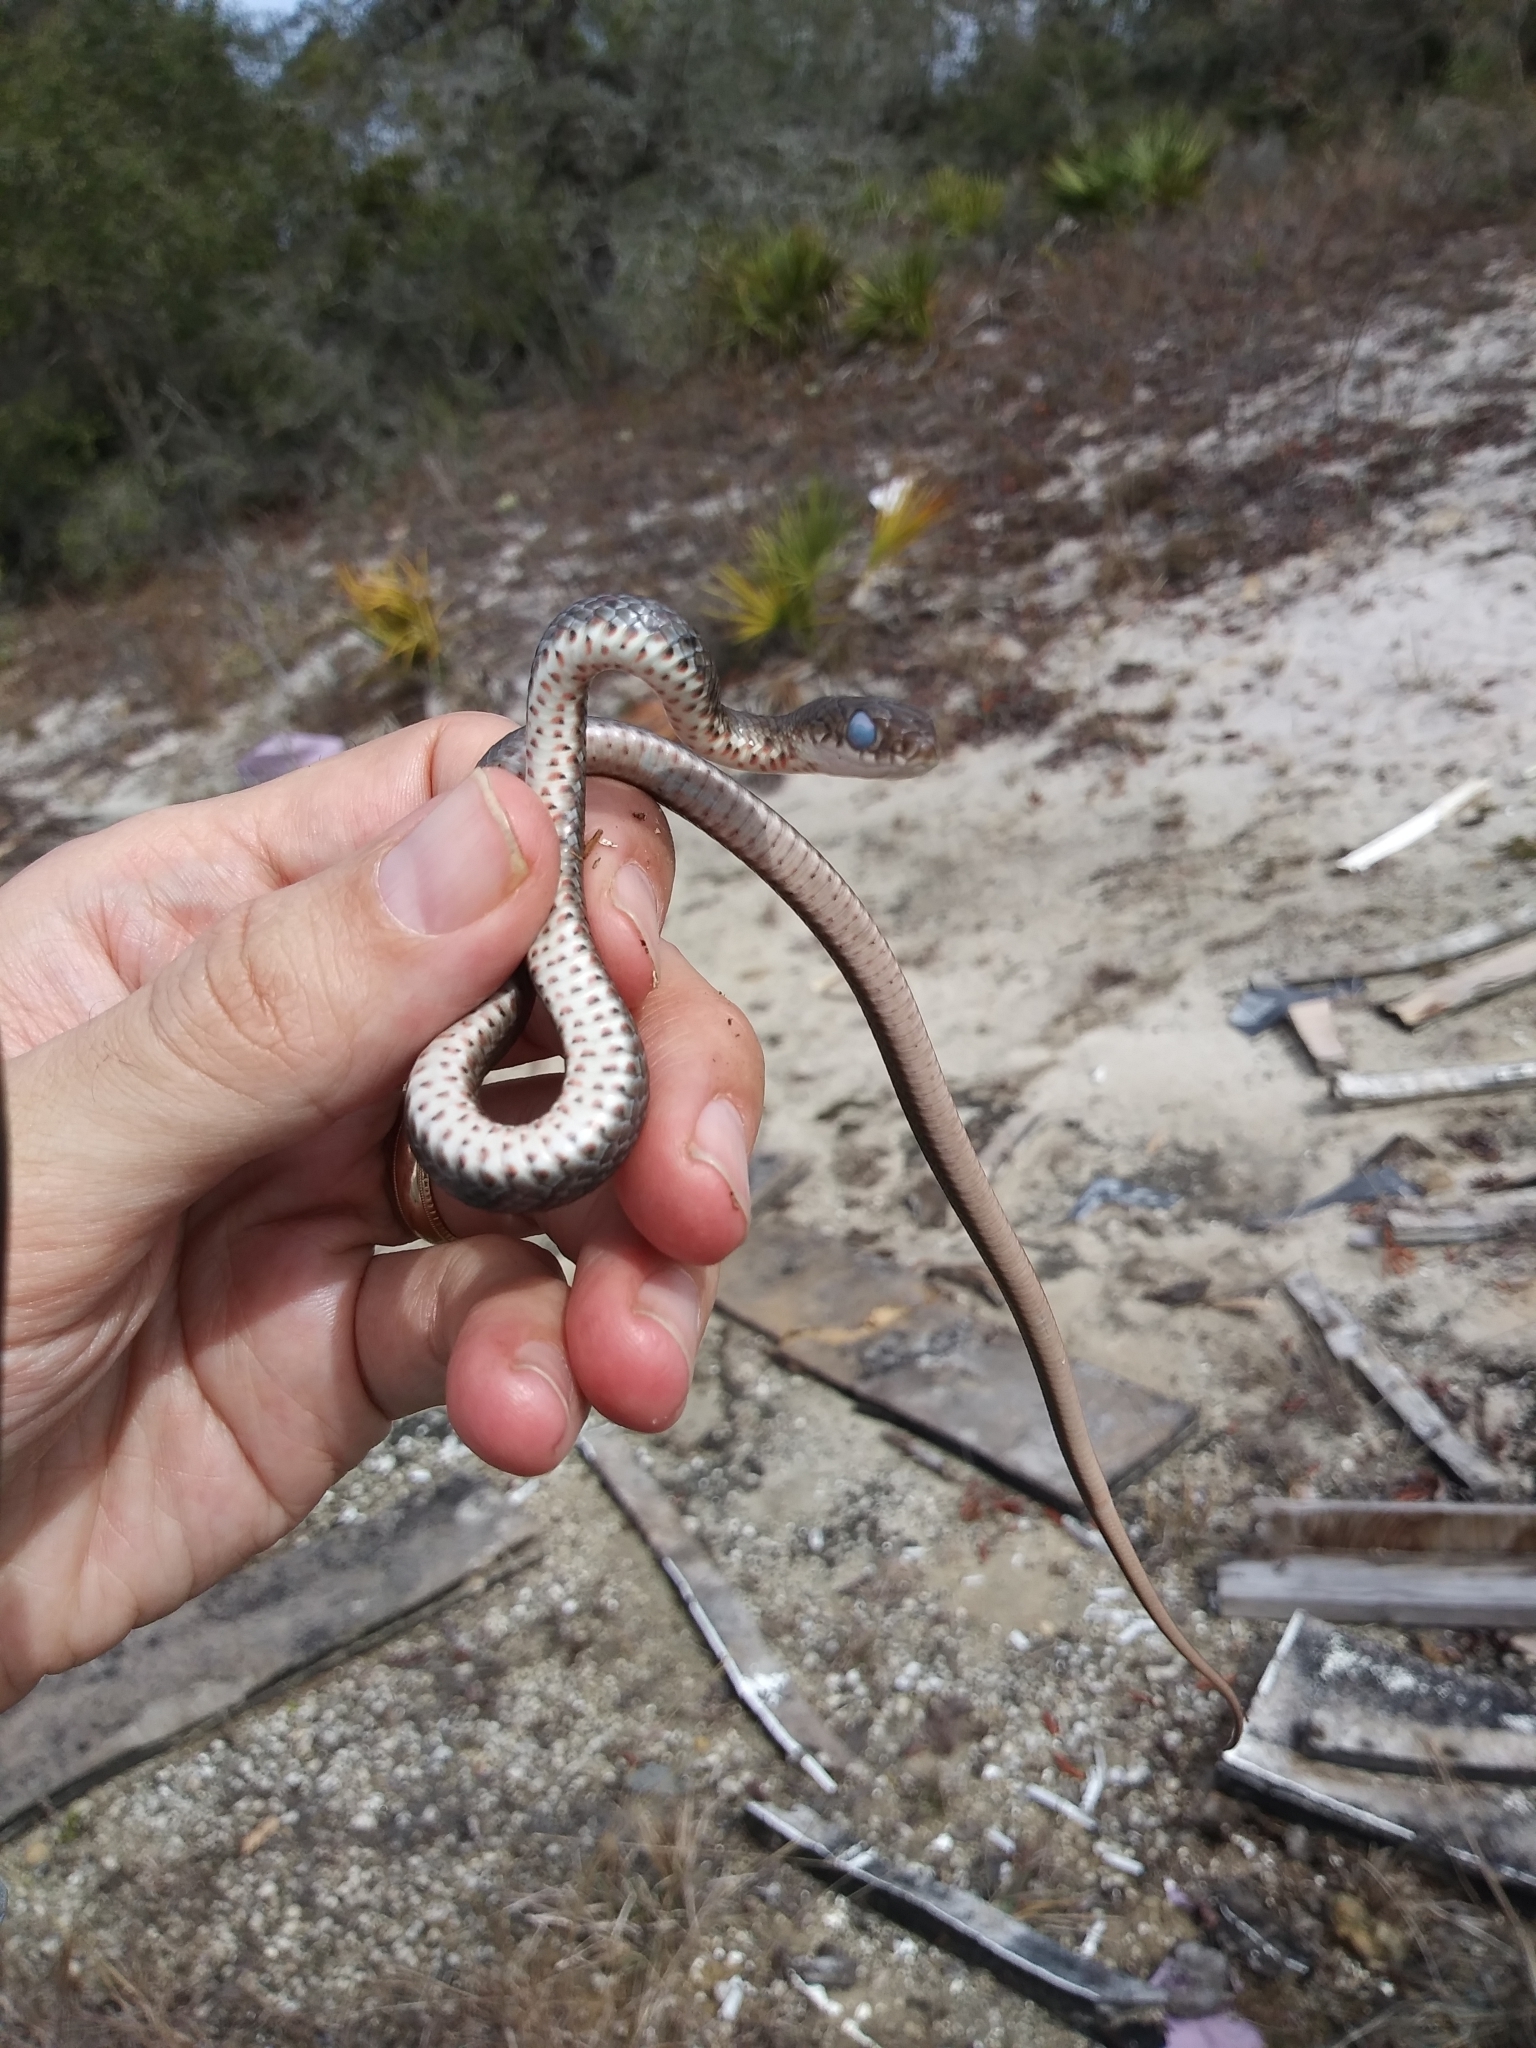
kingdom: Animalia
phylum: Chordata
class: Squamata
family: Colubridae
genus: Coluber
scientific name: Coluber constrictor
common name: Eastern racer
